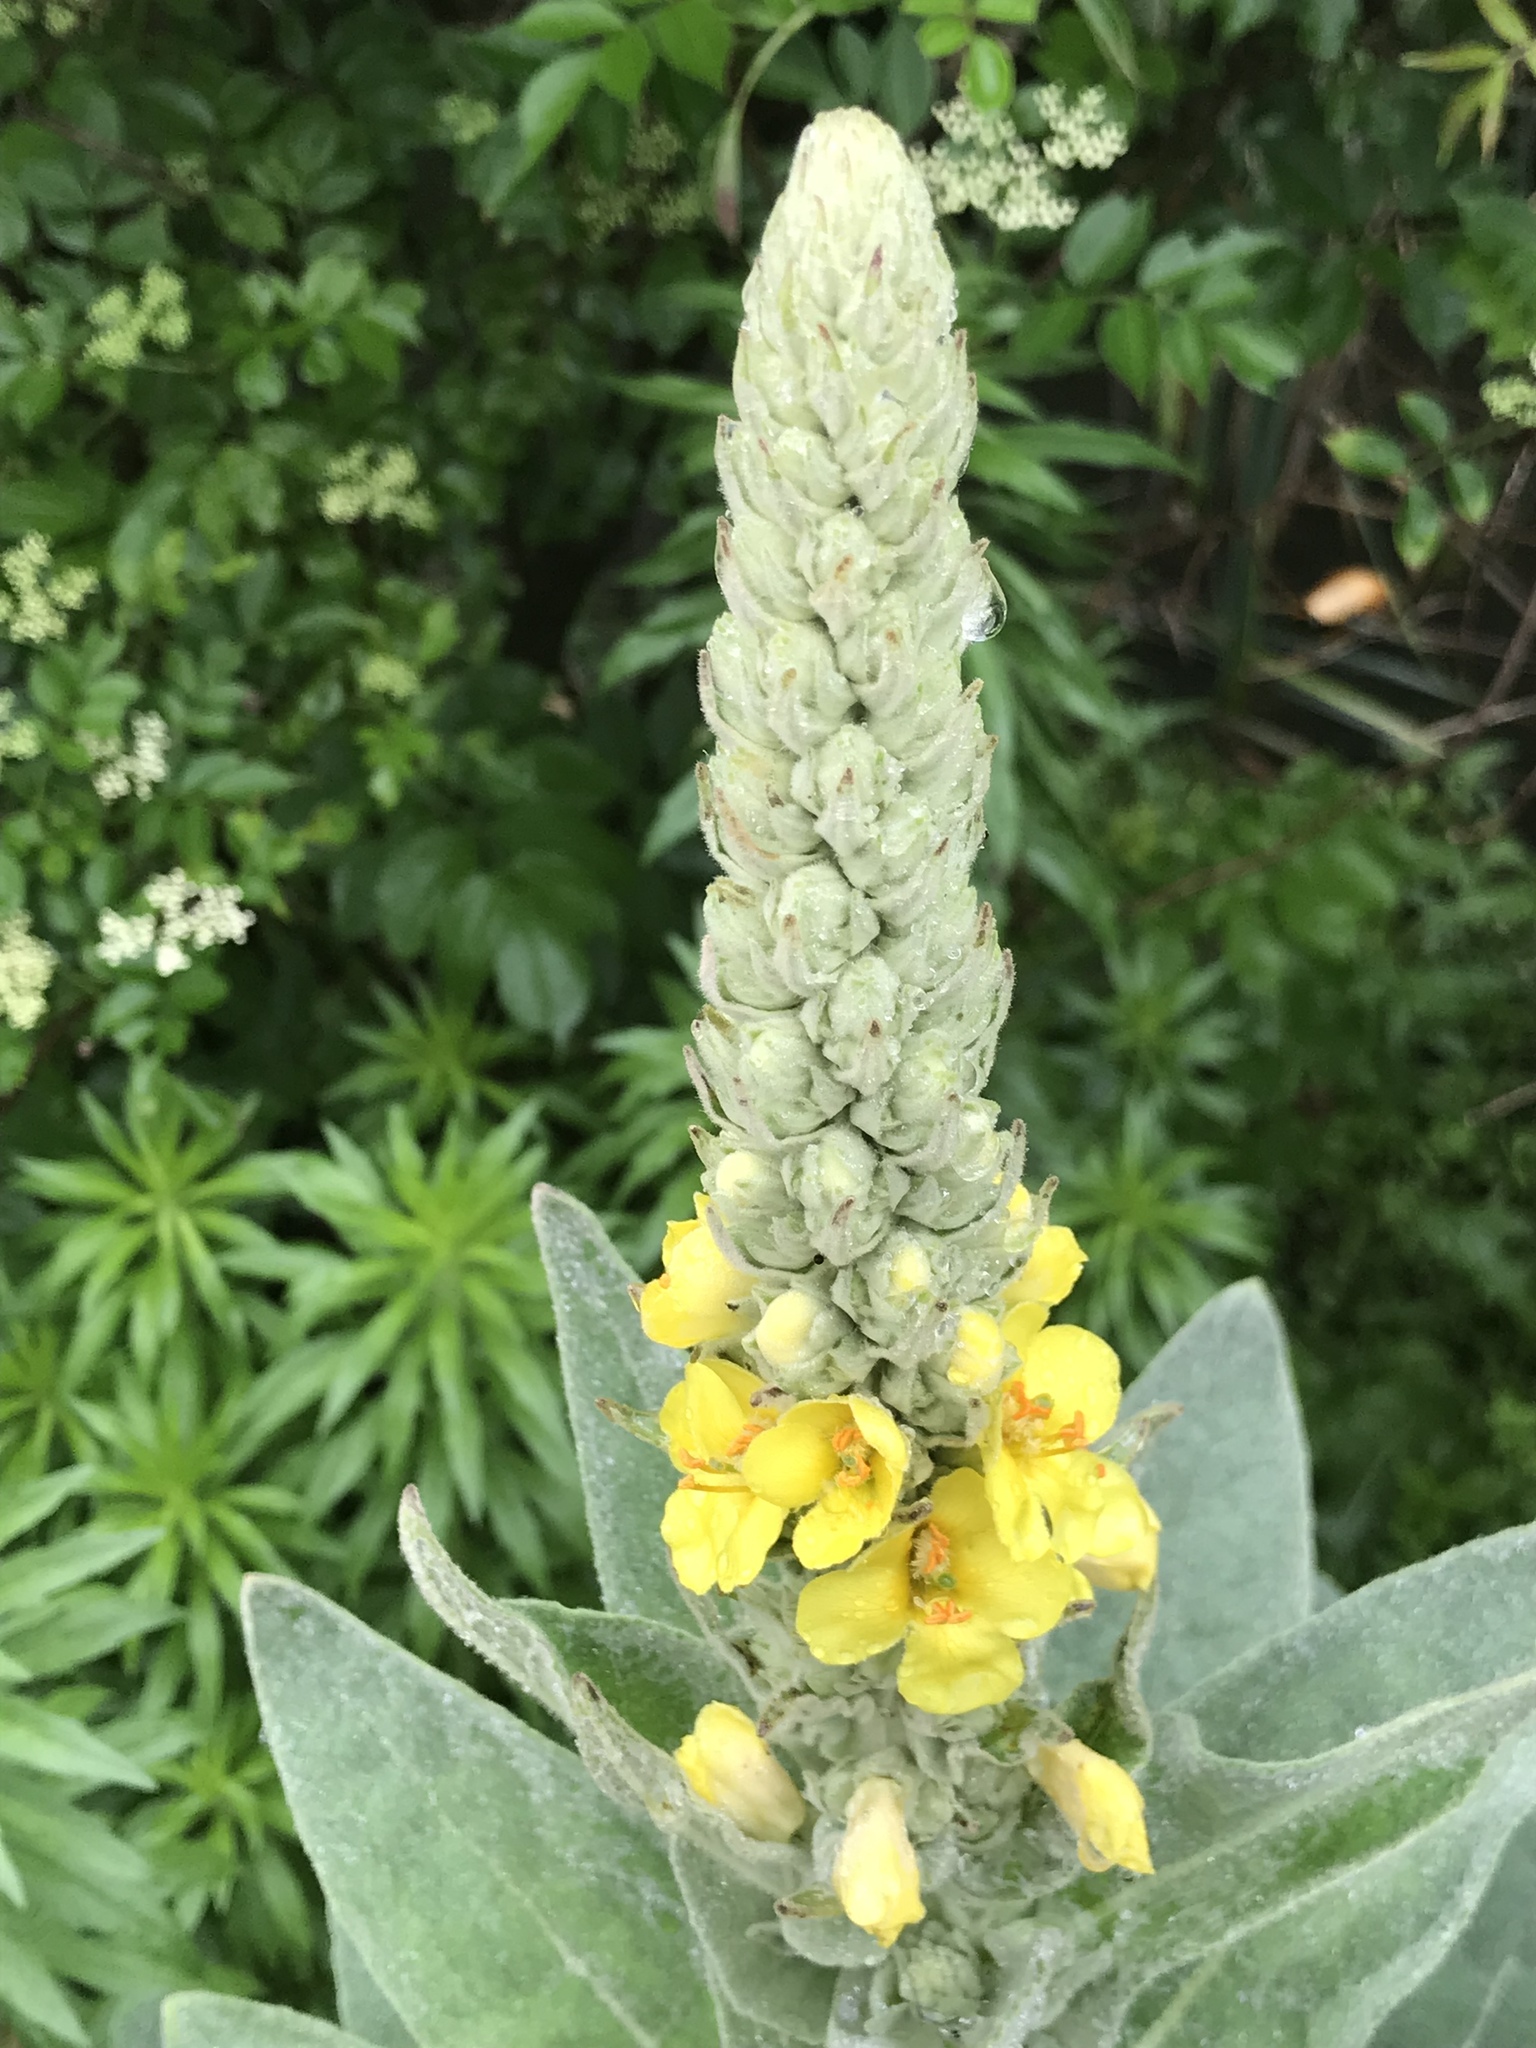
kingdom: Plantae
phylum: Tracheophyta
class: Magnoliopsida
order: Lamiales
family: Scrophulariaceae
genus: Verbascum
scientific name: Verbascum thapsus
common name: Common mullein
